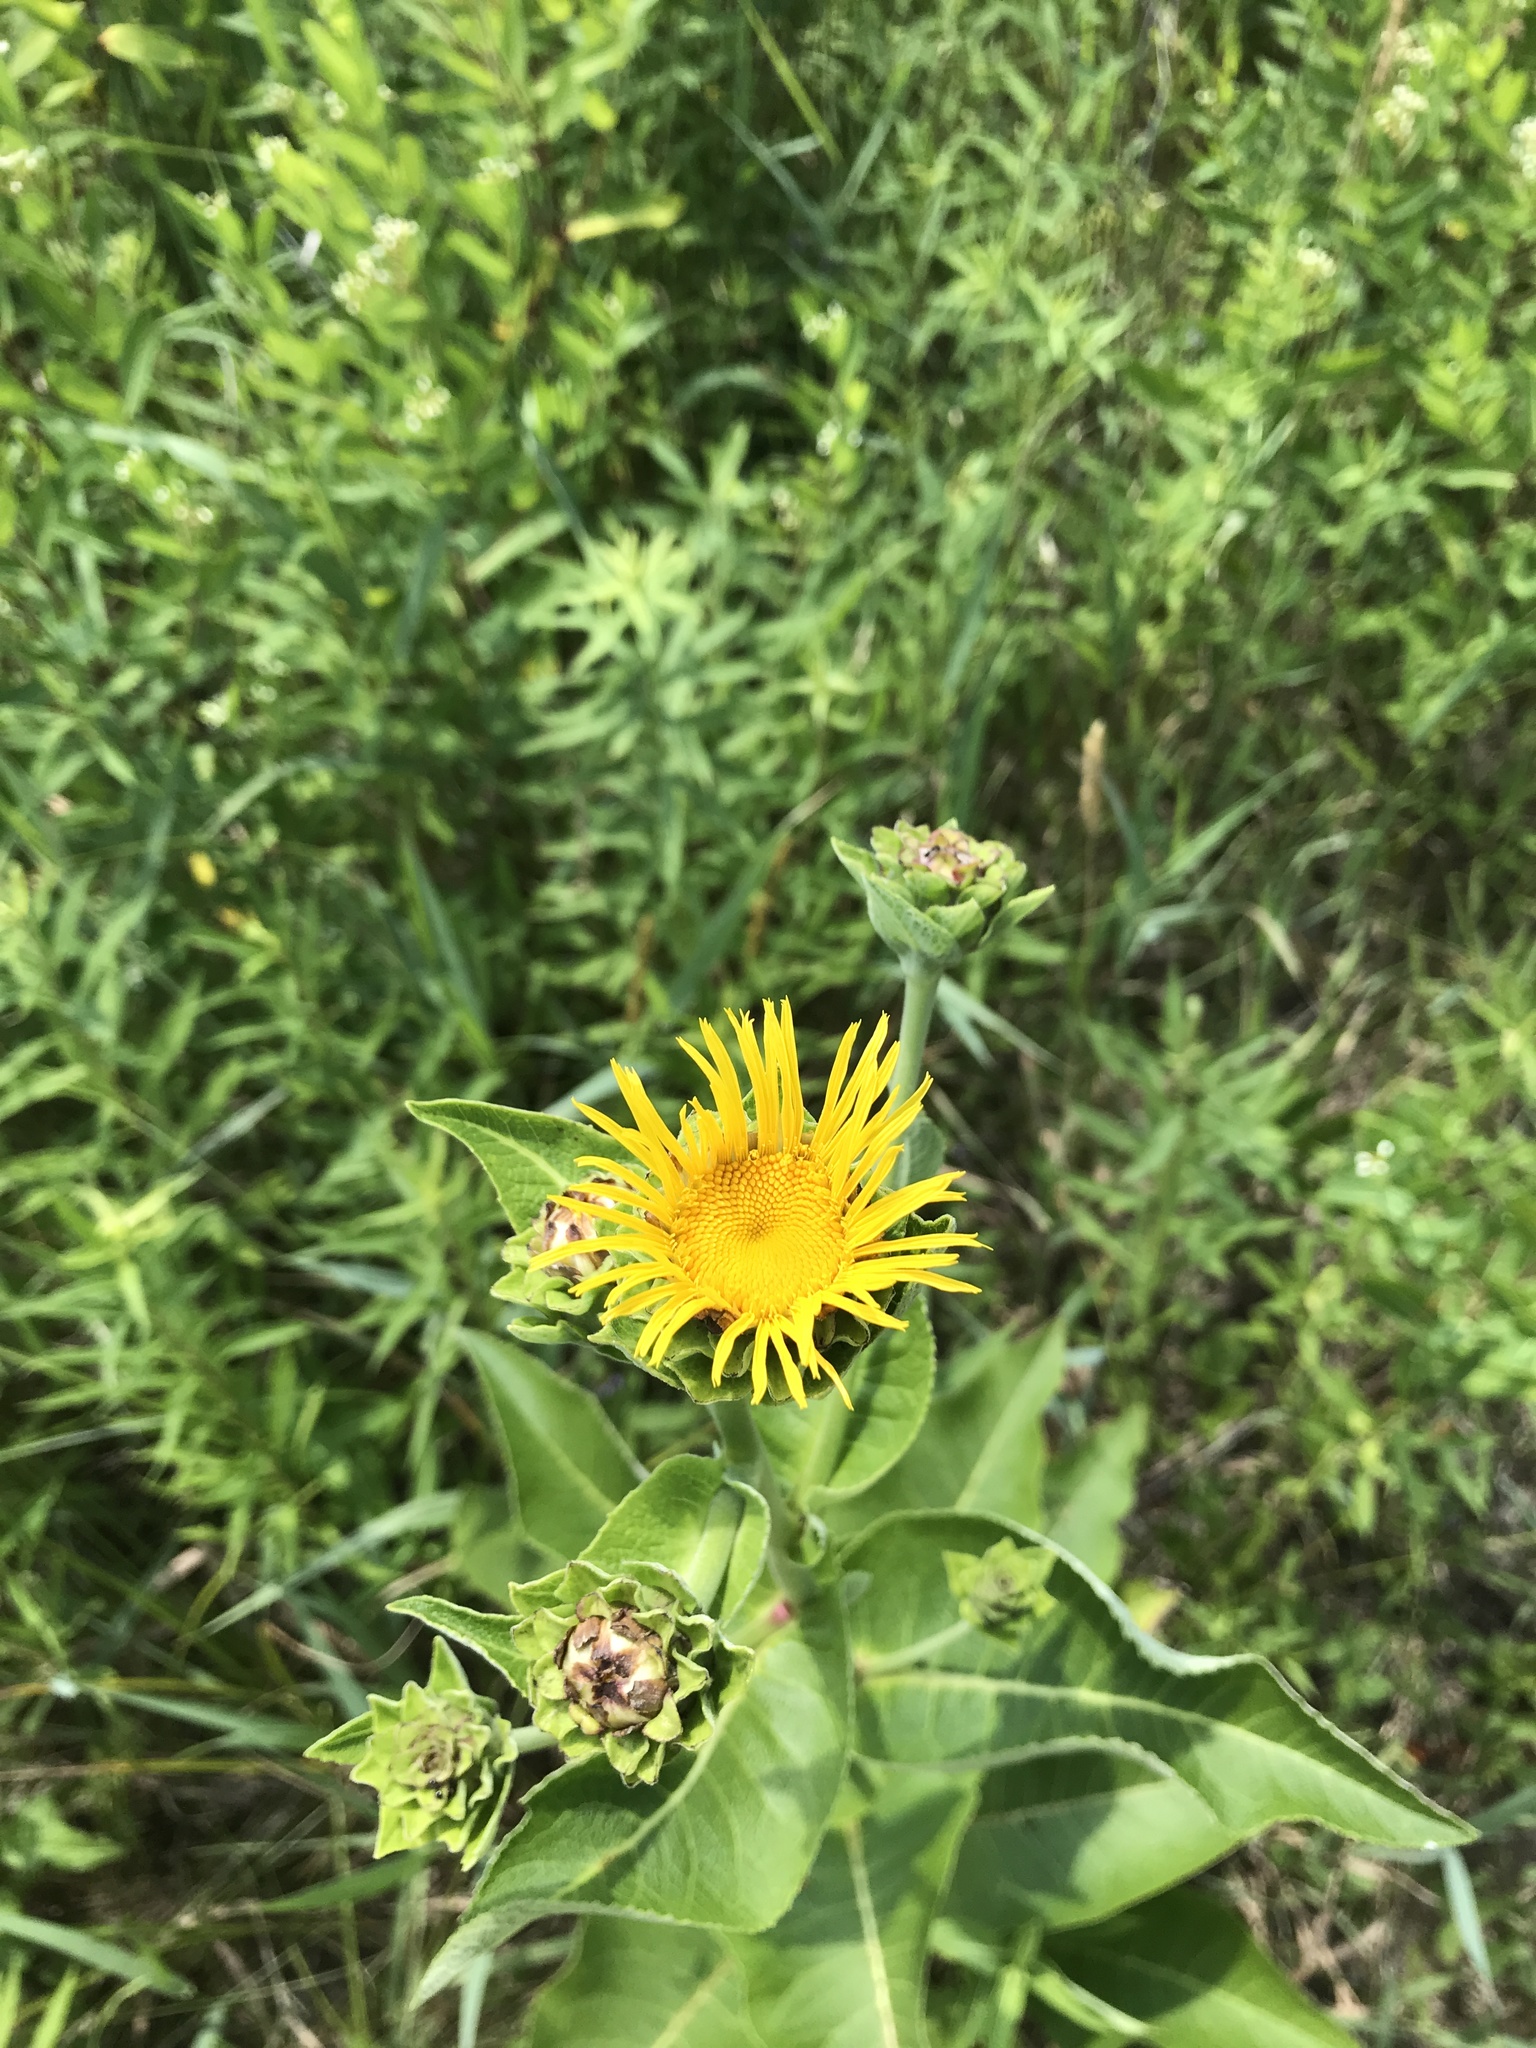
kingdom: Plantae
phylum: Tracheophyta
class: Magnoliopsida
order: Asterales
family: Asteraceae
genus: Inula
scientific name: Inula helenium
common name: Elecampane
